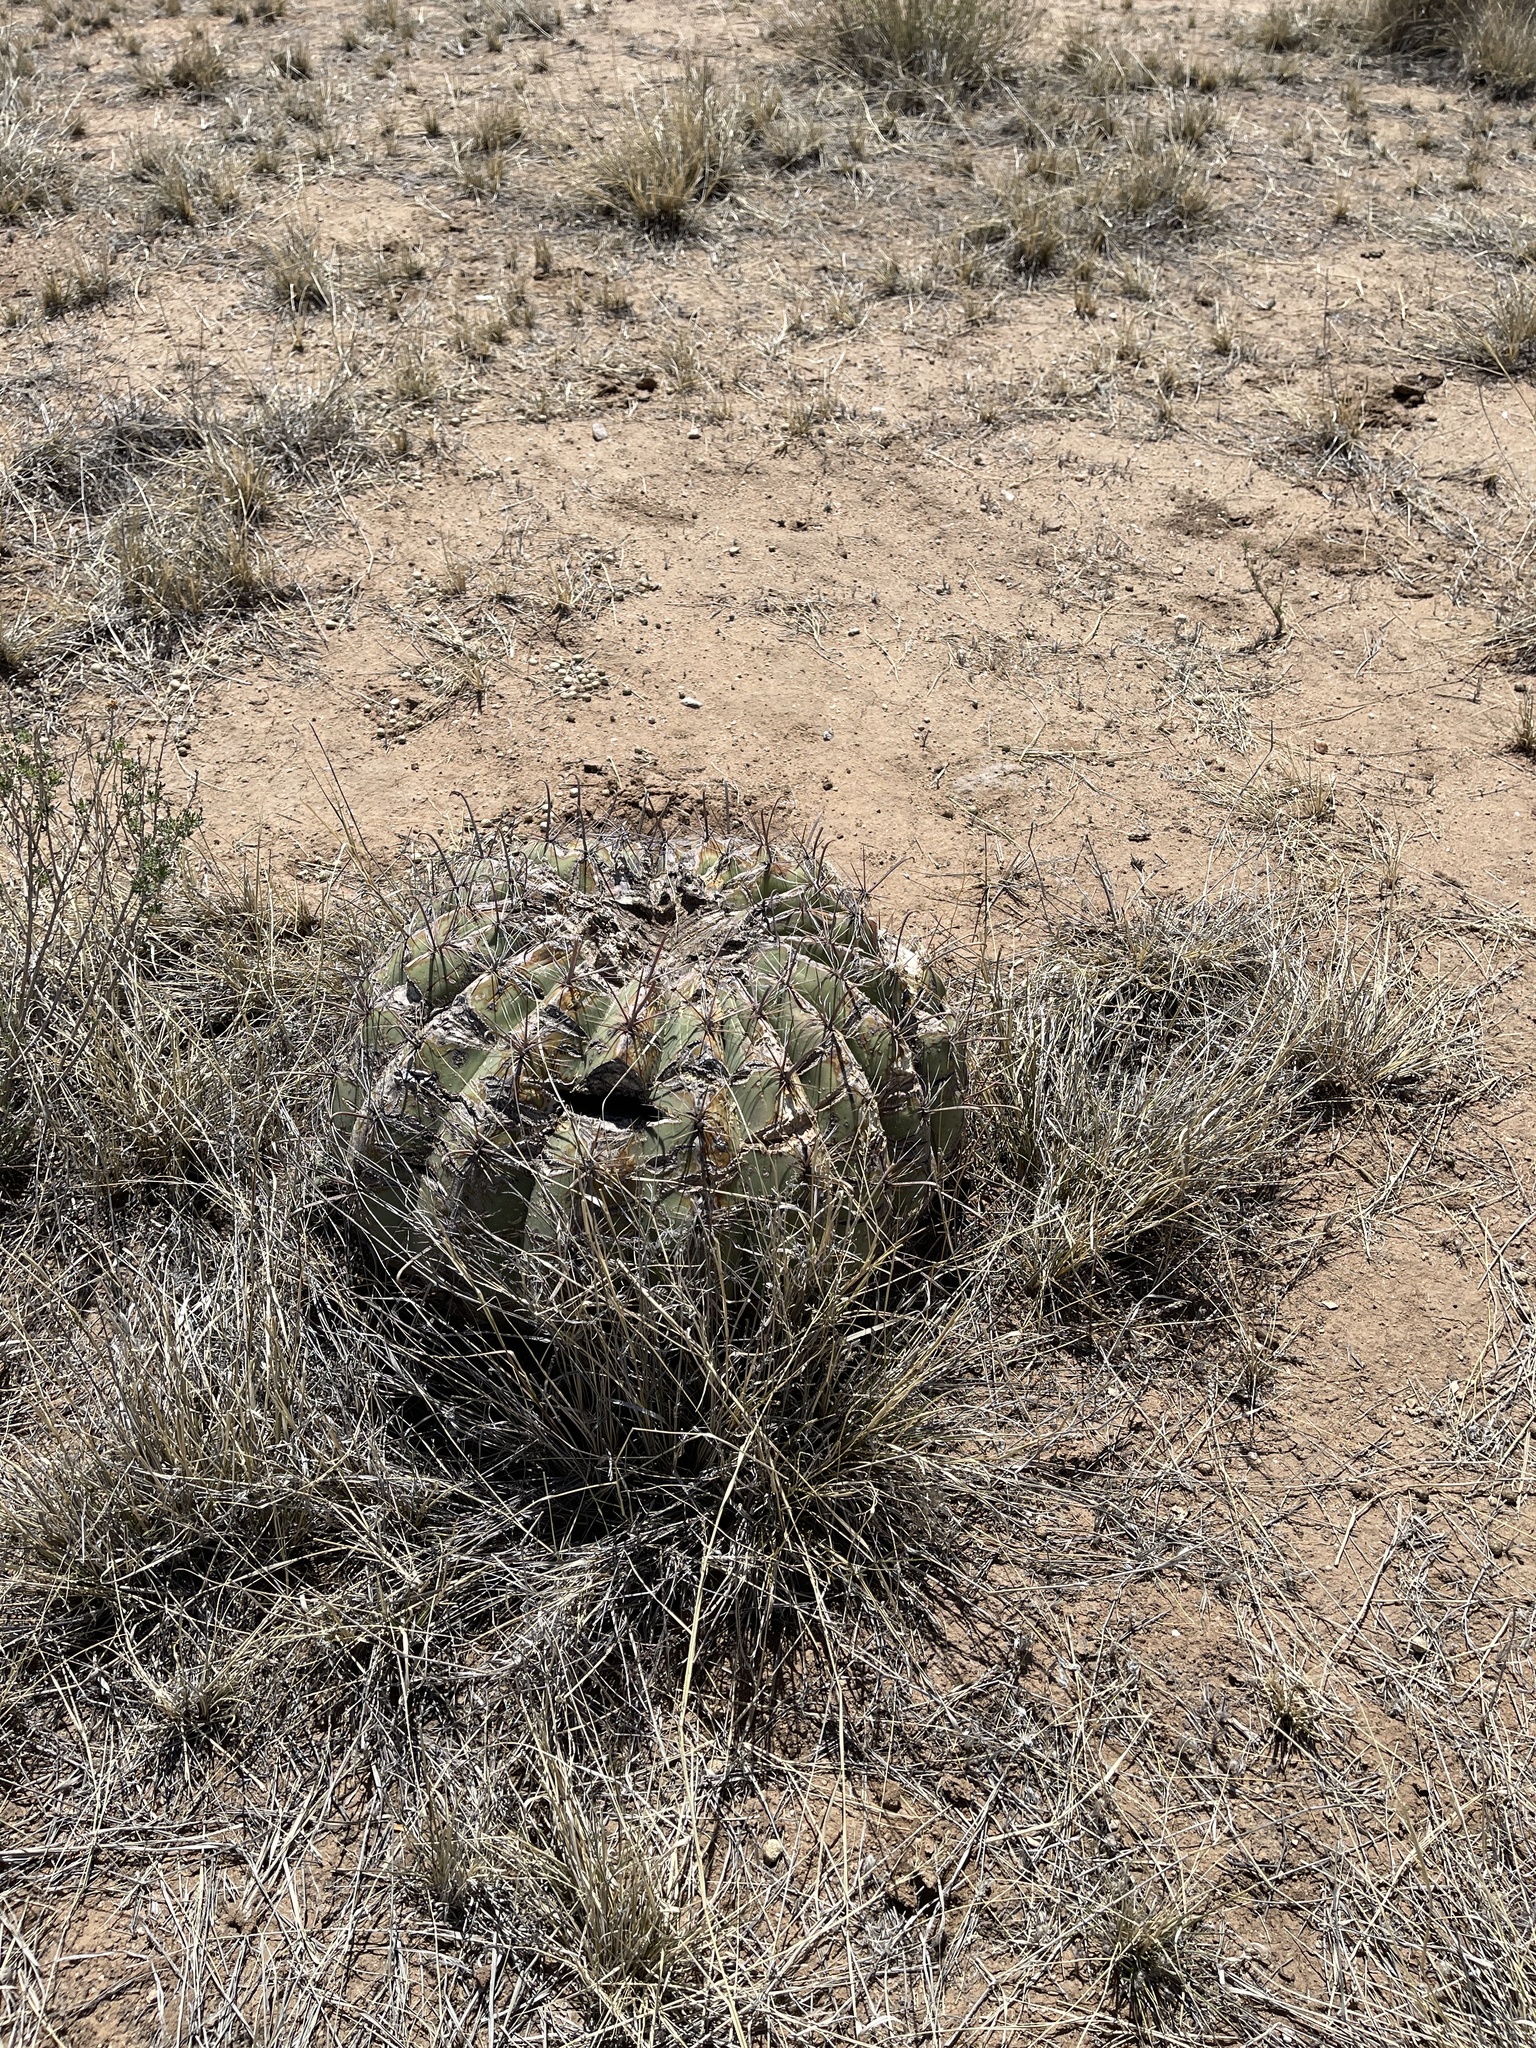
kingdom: Plantae
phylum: Tracheophyta
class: Magnoliopsida
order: Caryophyllales
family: Cactaceae
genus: Ferocactus
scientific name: Ferocactus wislizeni
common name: Candy barrel cactus
